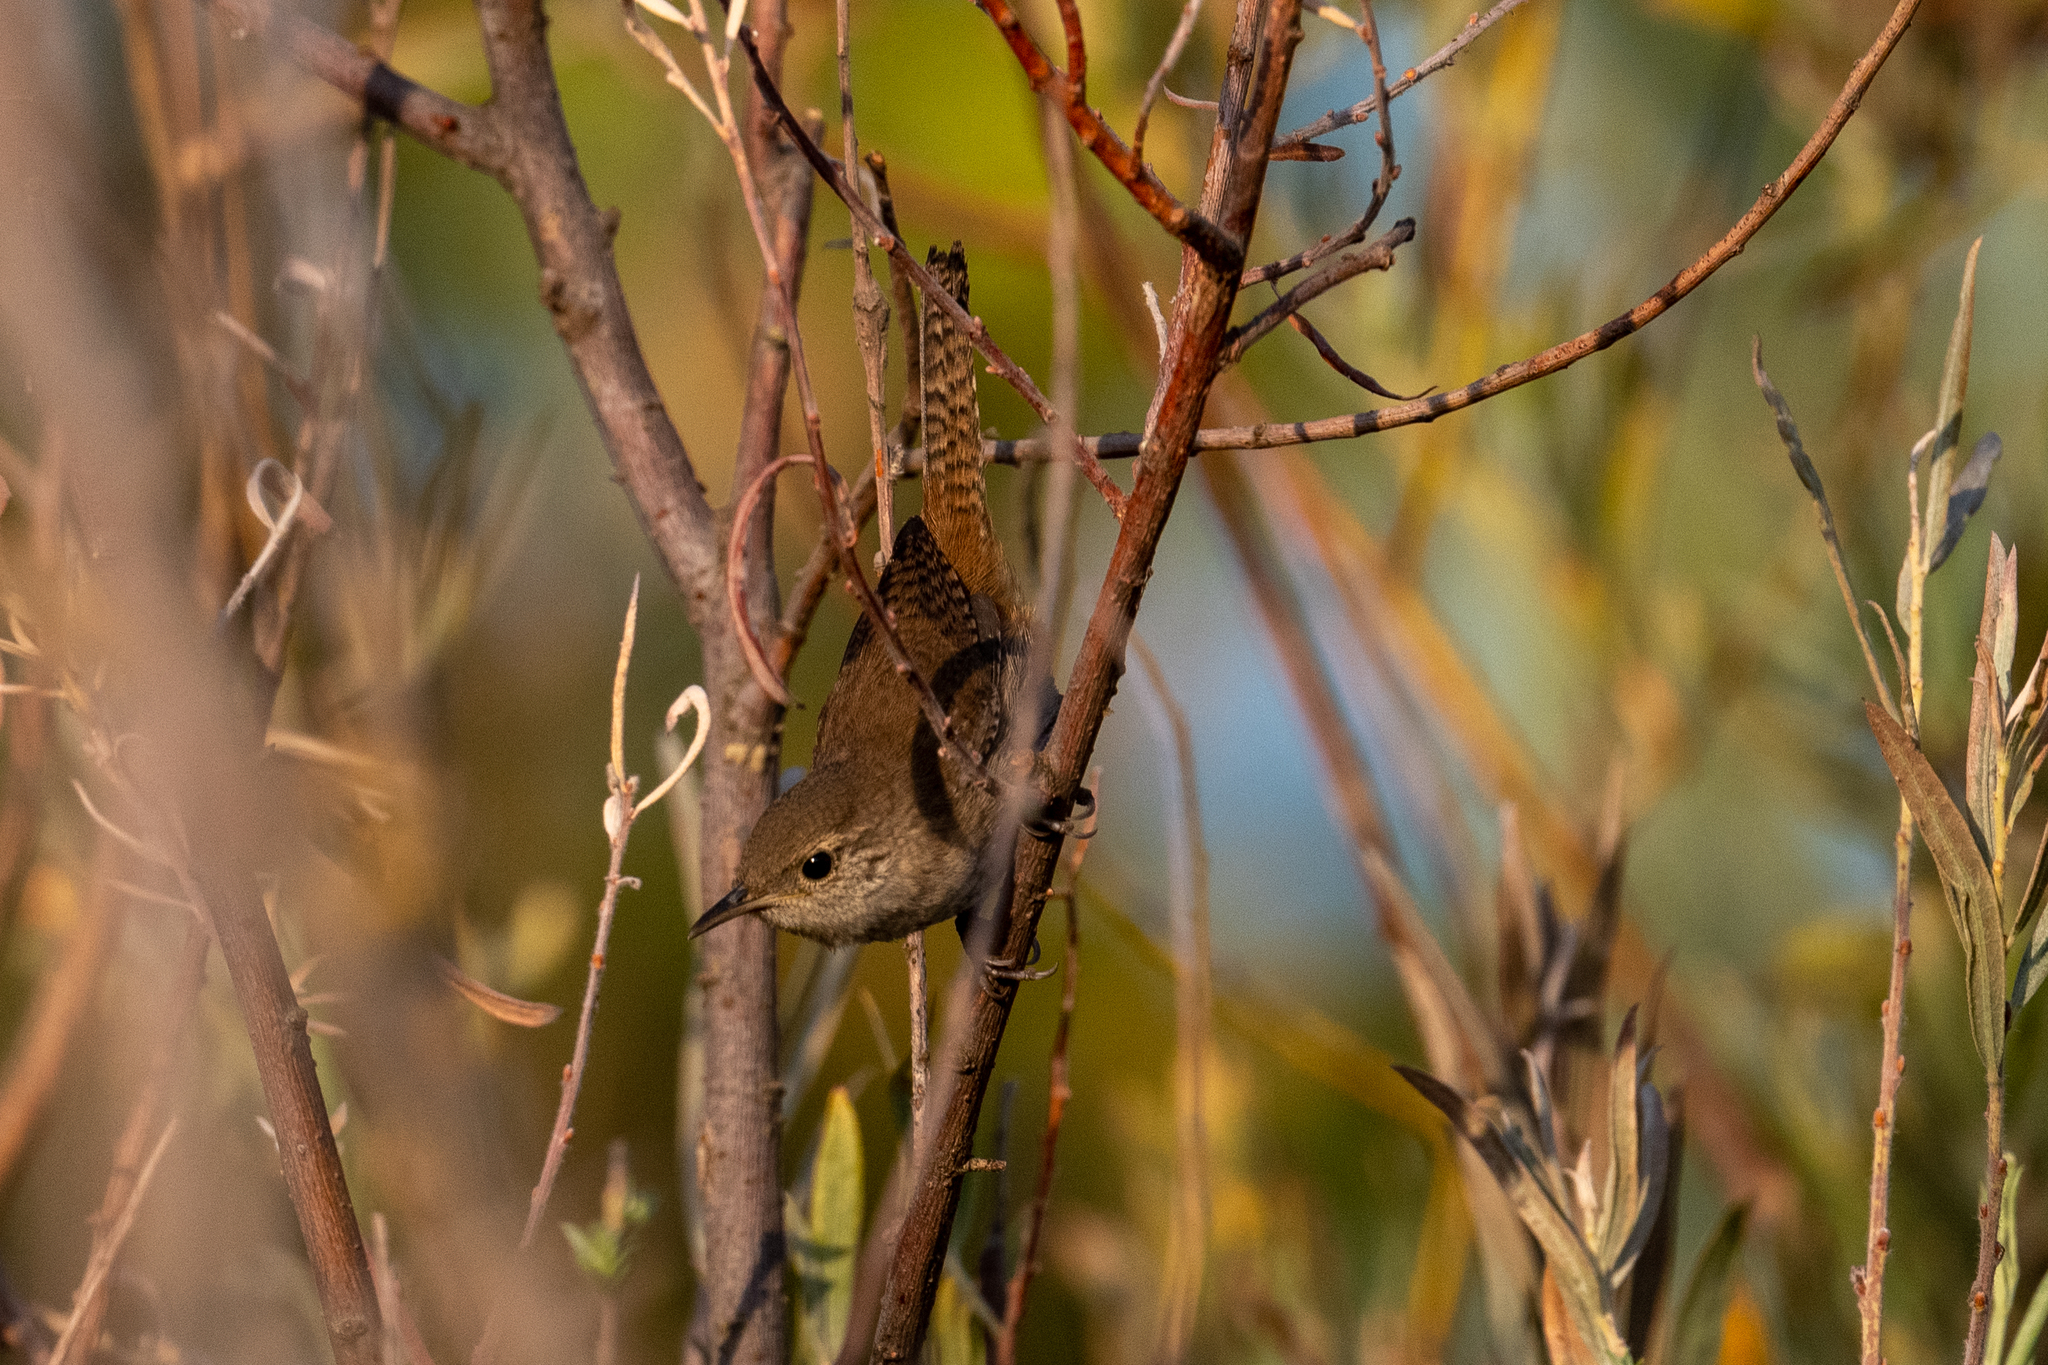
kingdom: Animalia
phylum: Chordata
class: Aves
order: Passeriformes
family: Troglodytidae
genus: Cistothorus
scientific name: Cistothorus palustris
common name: Marsh wren
